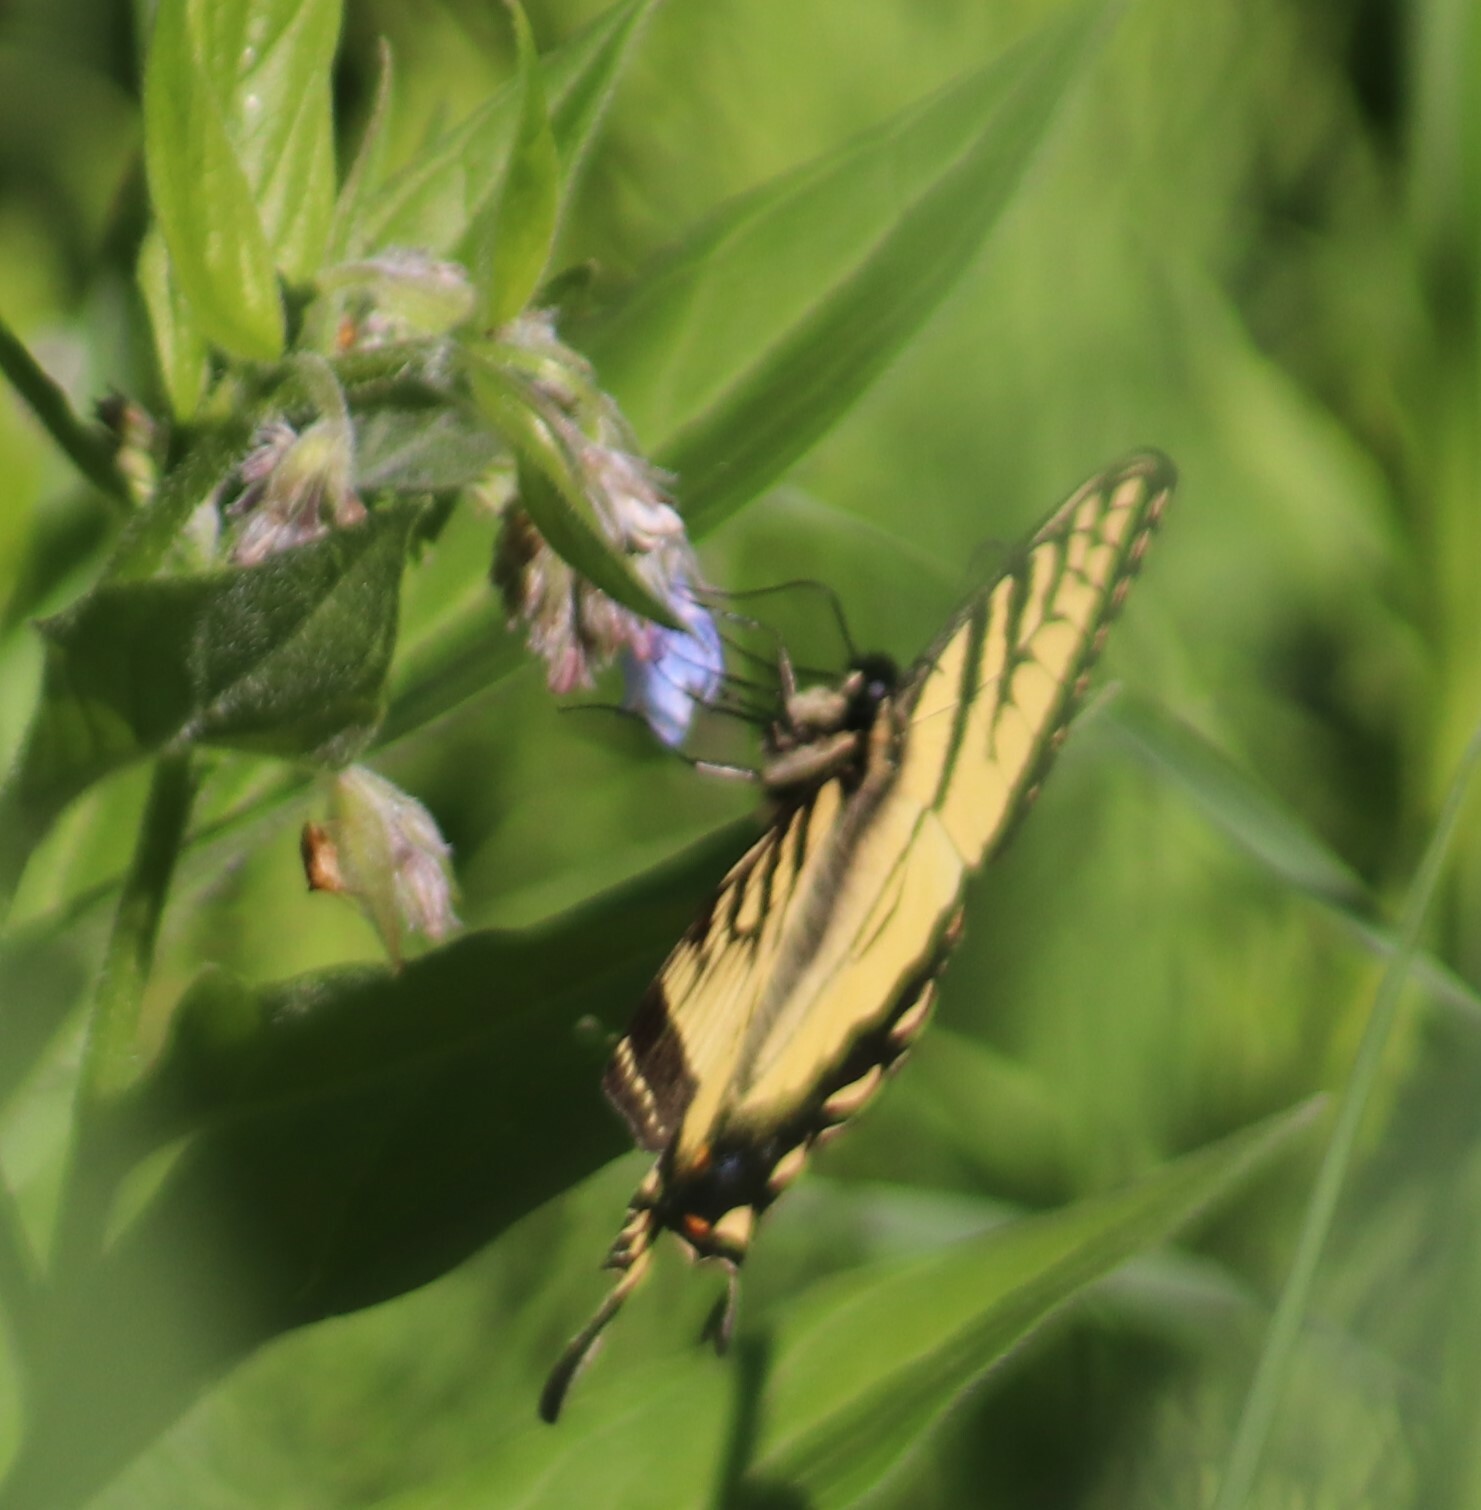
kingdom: Animalia
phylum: Arthropoda
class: Insecta
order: Lepidoptera
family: Papilionidae
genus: Papilio
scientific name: Papilio canadensis
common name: Canadian tiger swallowtail
